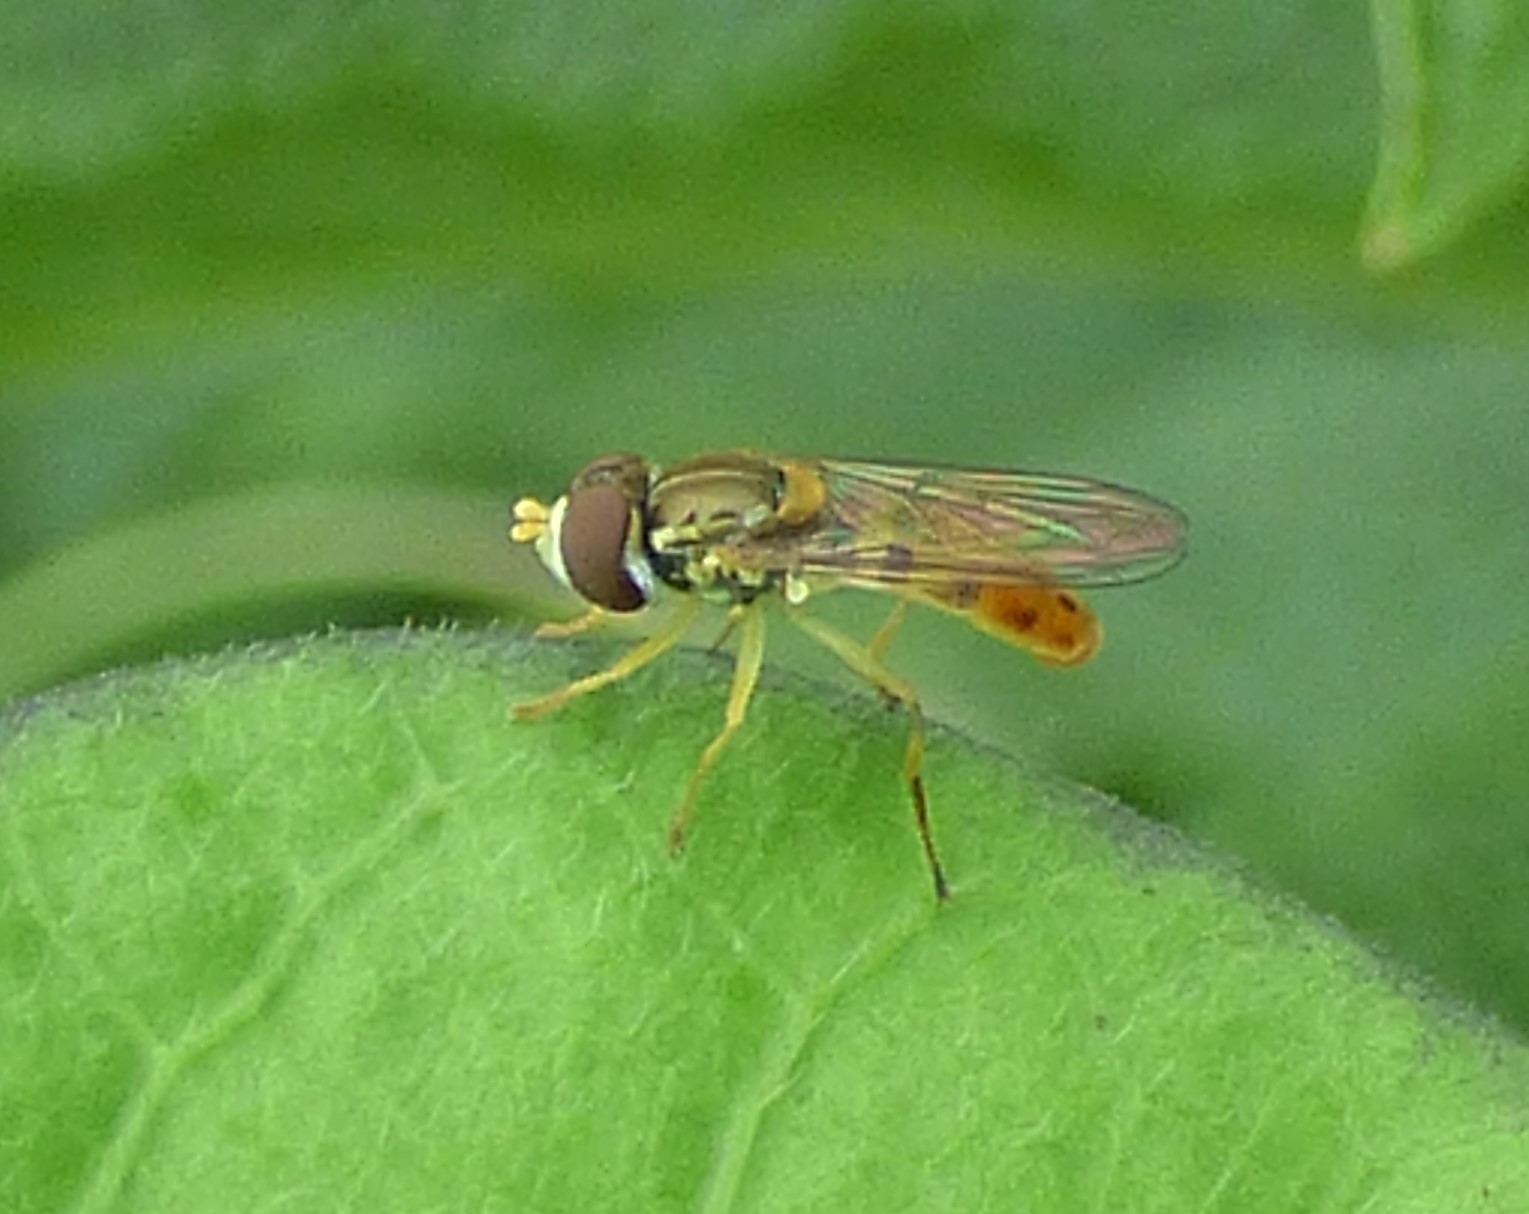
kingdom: Animalia
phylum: Arthropoda
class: Insecta
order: Diptera
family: Syrphidae
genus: Toxomerus
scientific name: Toxomerus marginatus
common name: Syrphid fly
